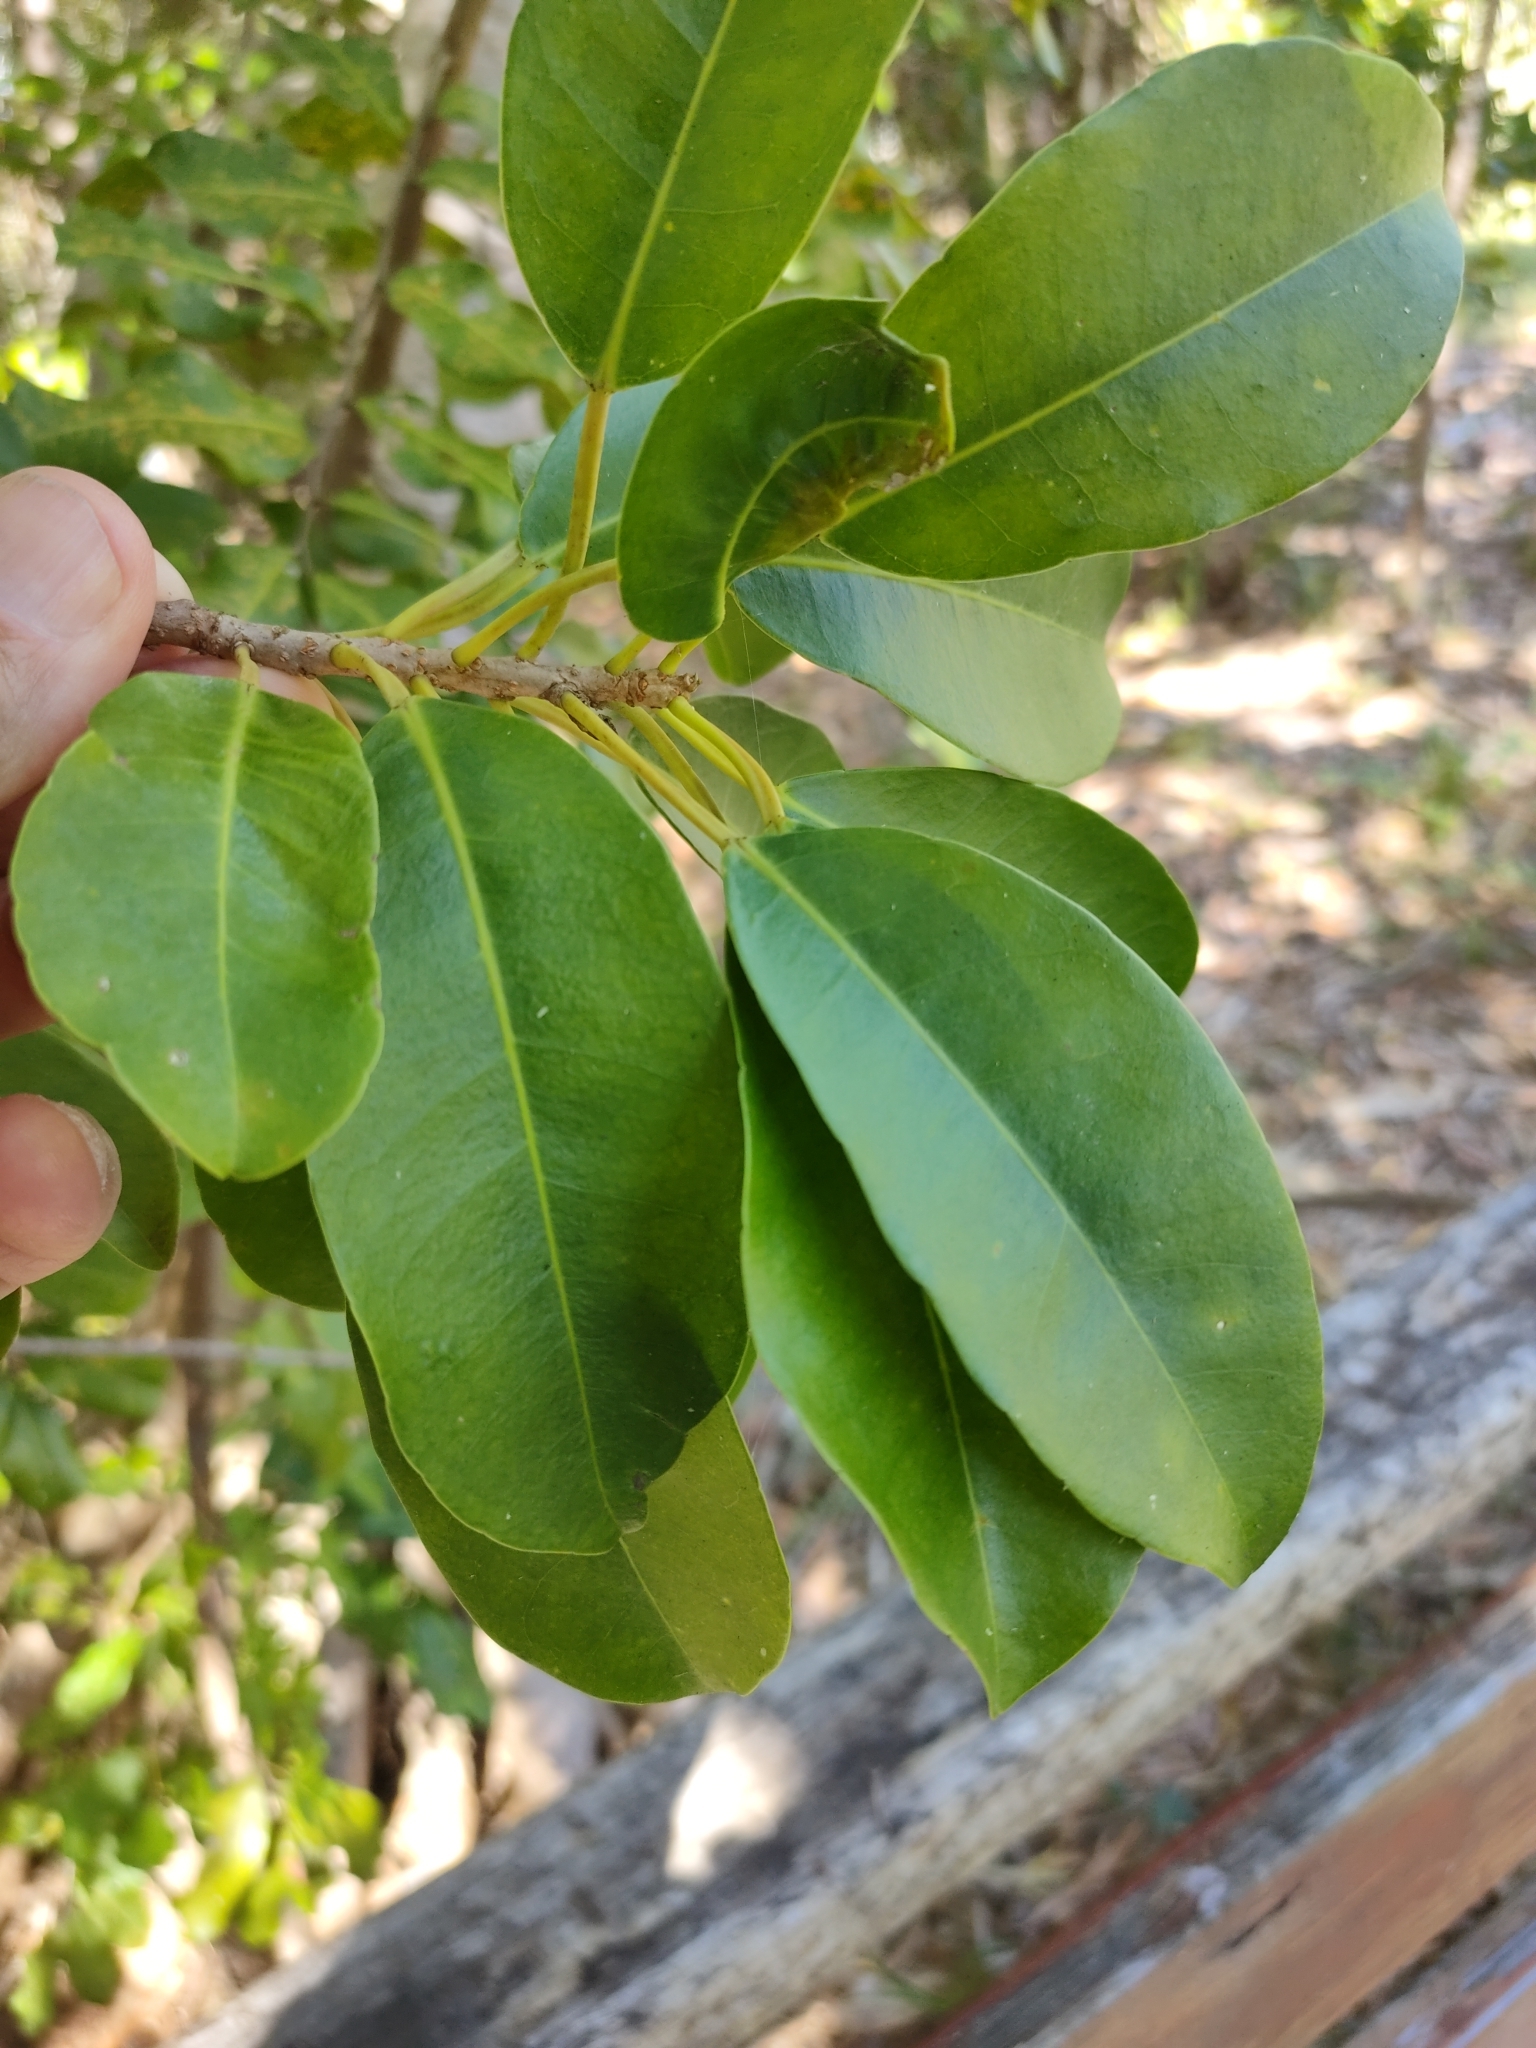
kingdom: Plantae
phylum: Tracheophyta
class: Magnoliopsida
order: Malpighiales
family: Euphorbiaceae
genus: Excoecaria
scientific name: Excoecaria agallocha
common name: River poisontree
